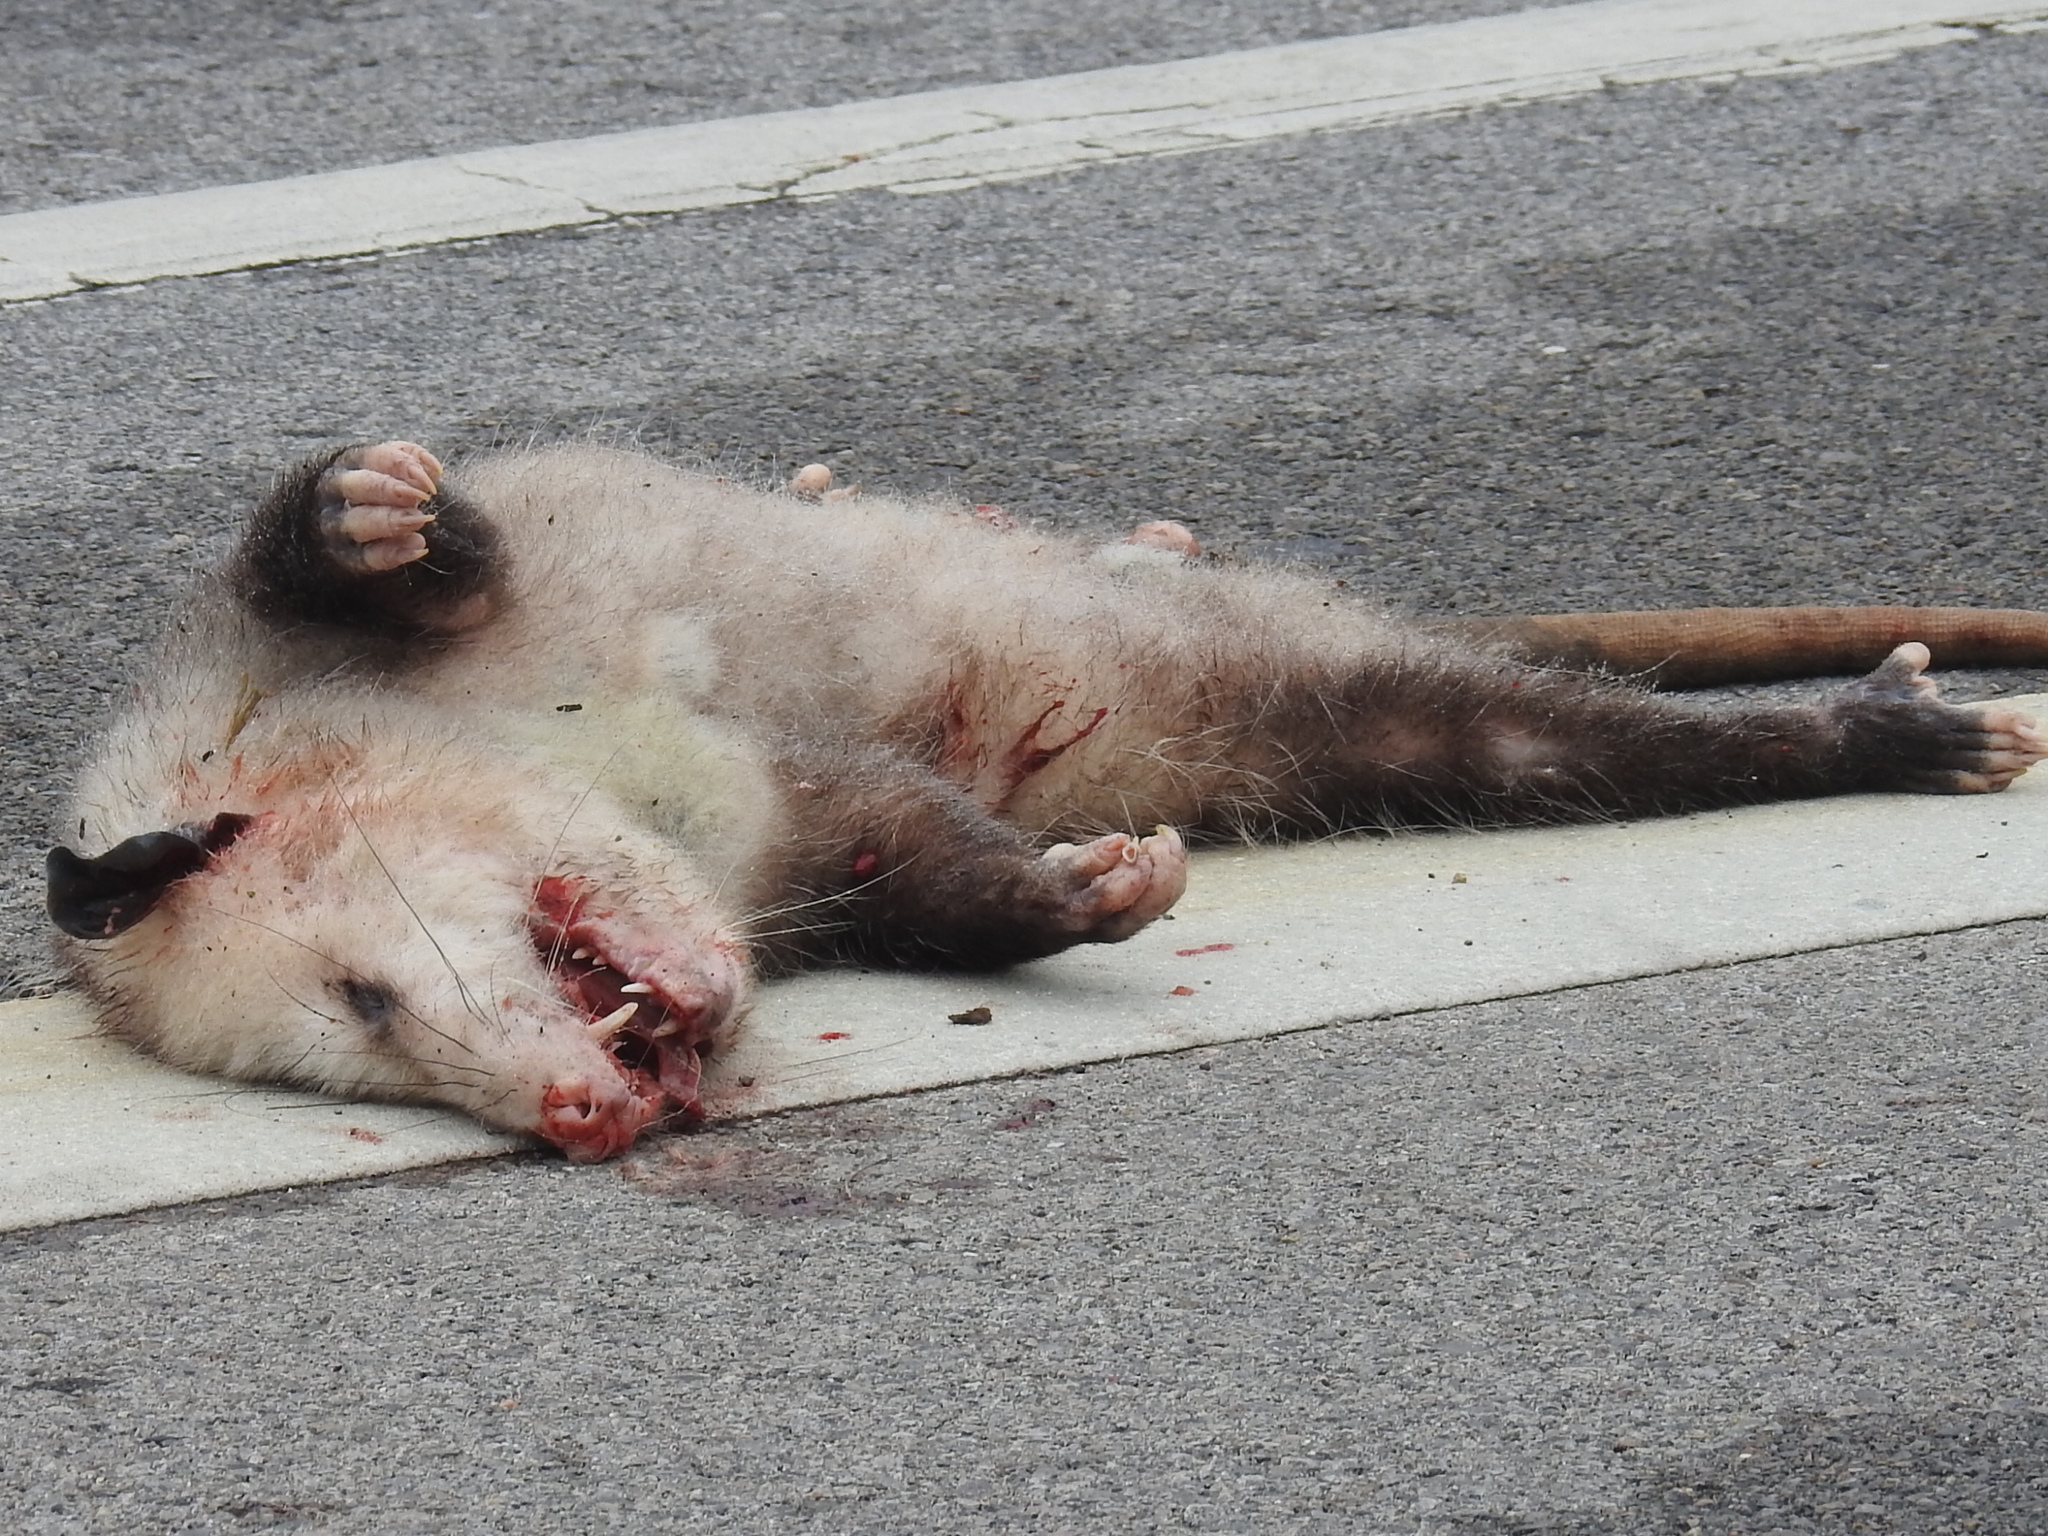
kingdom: Animalia
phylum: Chordata
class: Mammalia
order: Didelphimorphia
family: Didelphidae
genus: Didelphis
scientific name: Didelphis virginiana
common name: Virginia opossum
